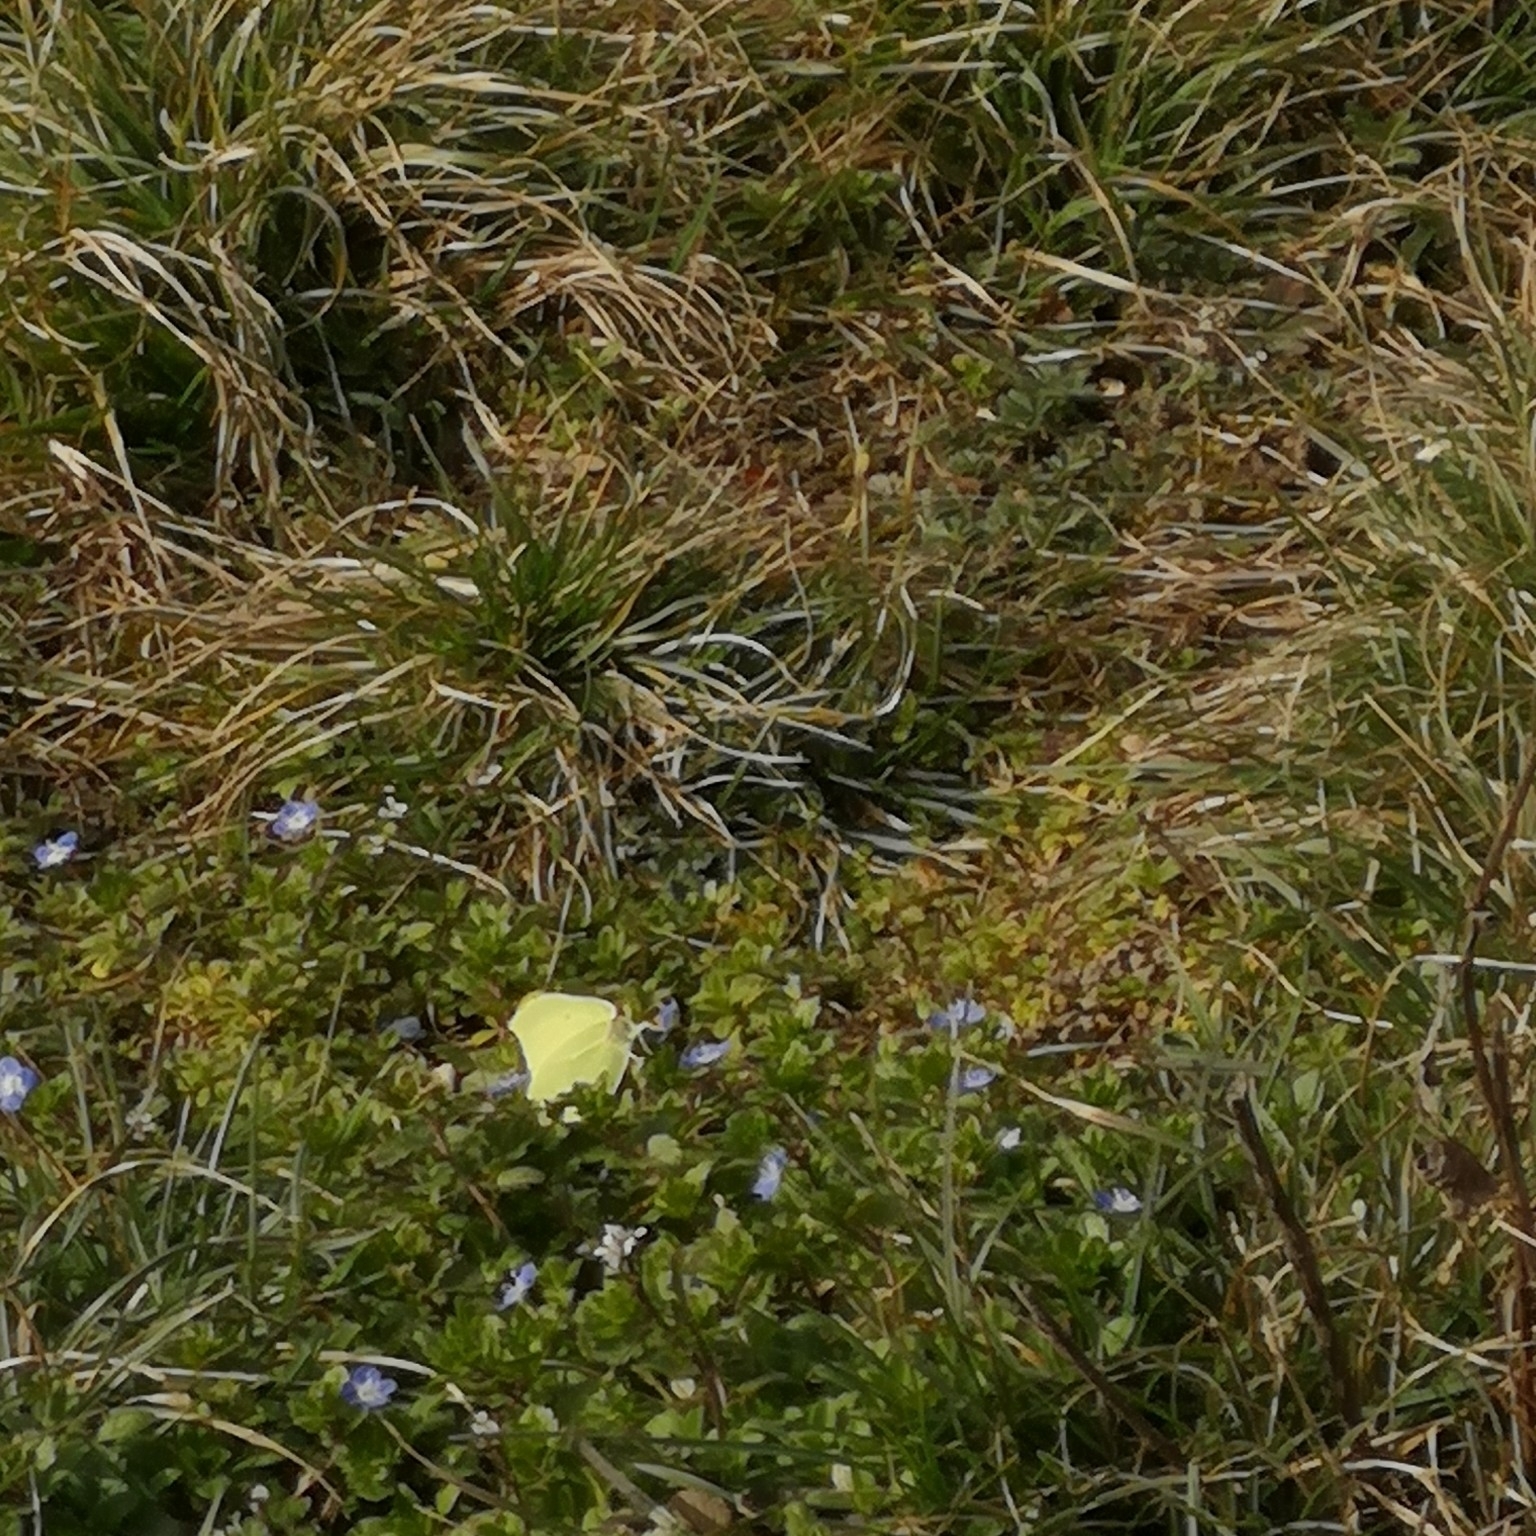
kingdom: Animalia
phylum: Arthropoda
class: Insecta
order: Lepidoptera
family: Pieridae
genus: Gonepteryx
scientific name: Gonepteryx rhamni
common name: Brimstone
